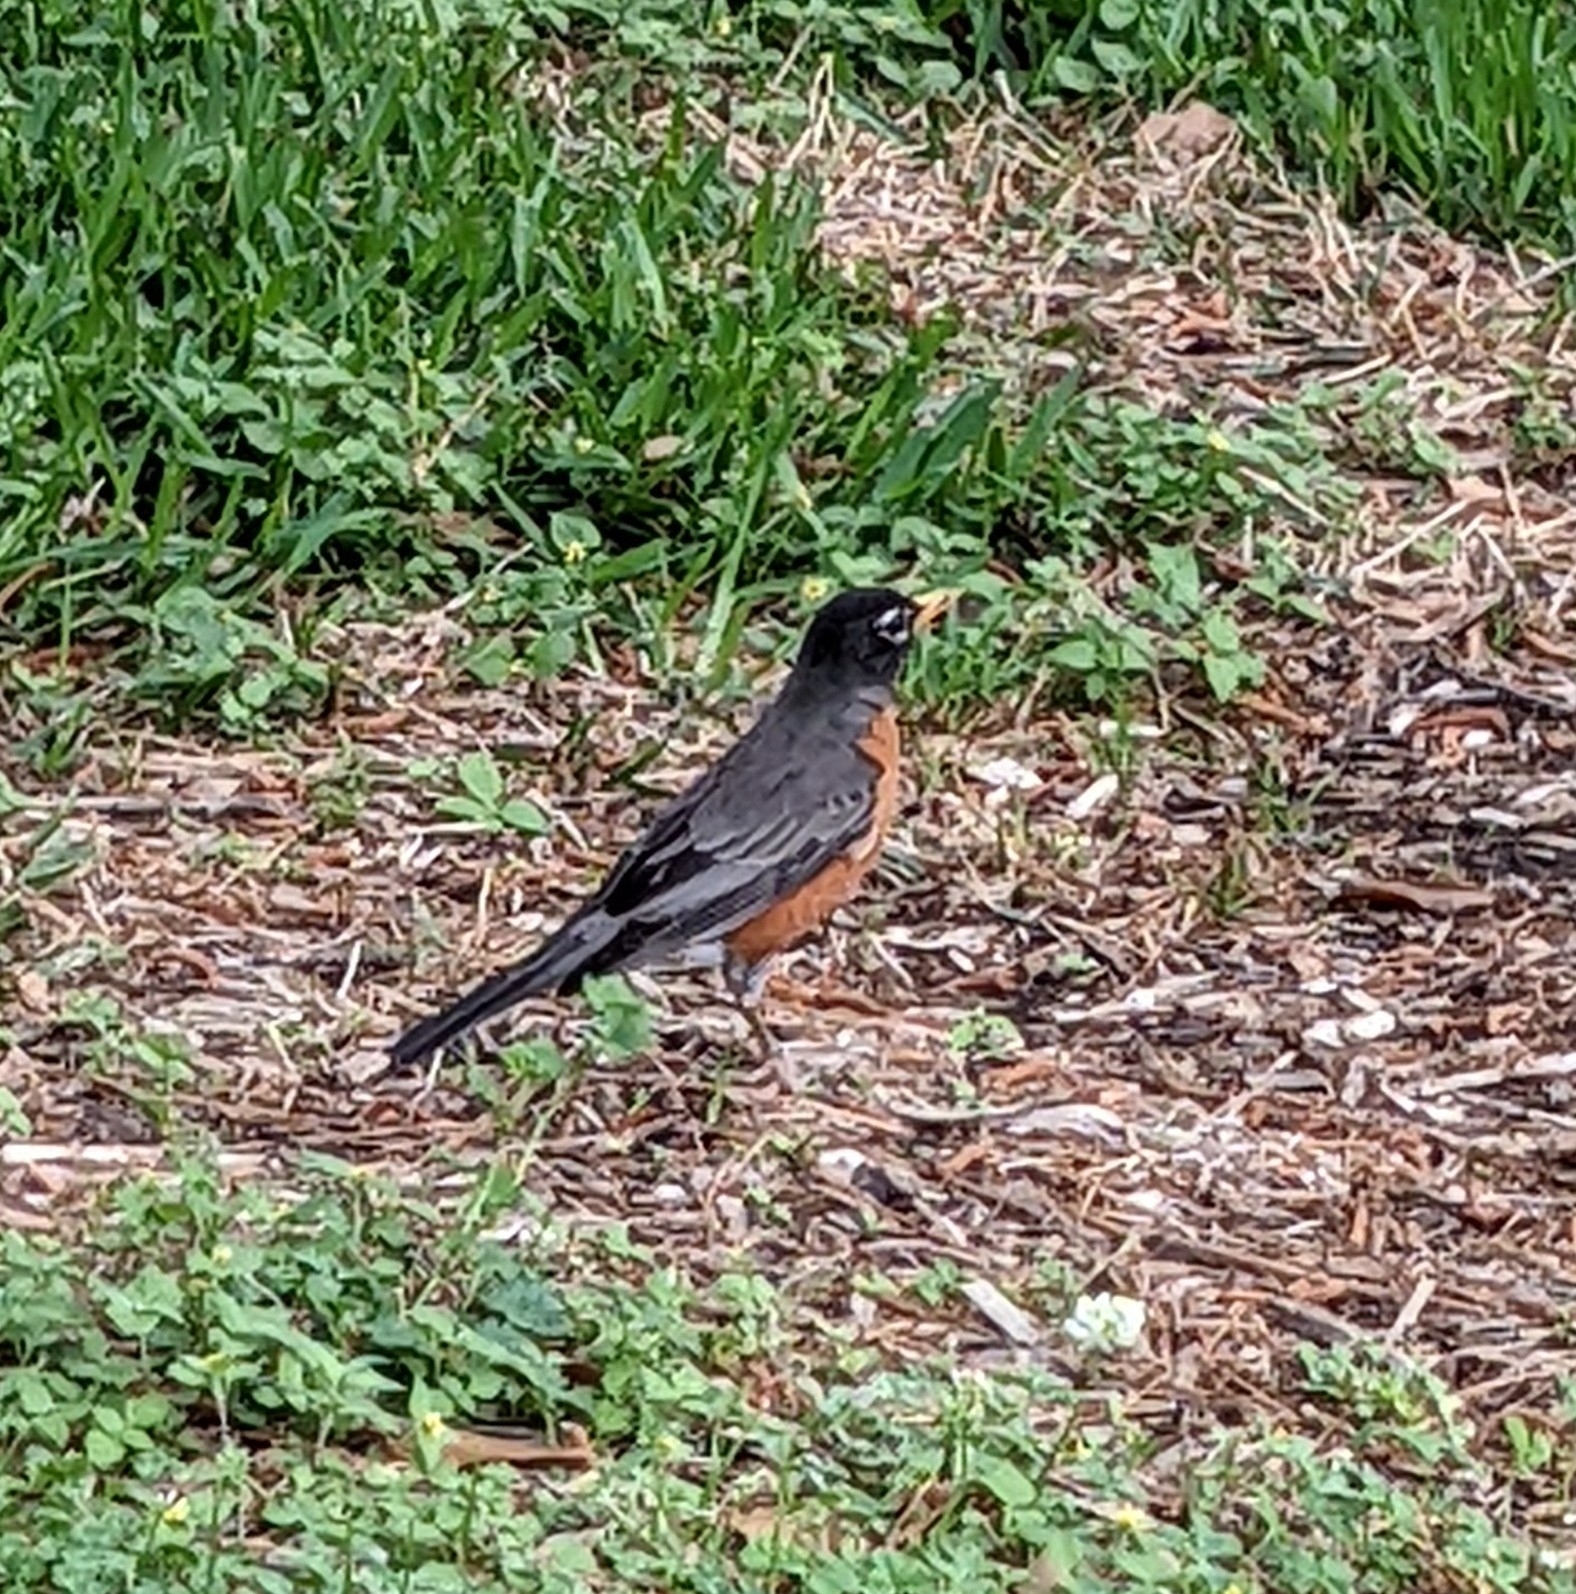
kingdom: Animalia
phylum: Chordata
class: Aves
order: Passeriformes
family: Turdidae
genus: Turdus
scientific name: Turdus migratorius
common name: American robin
